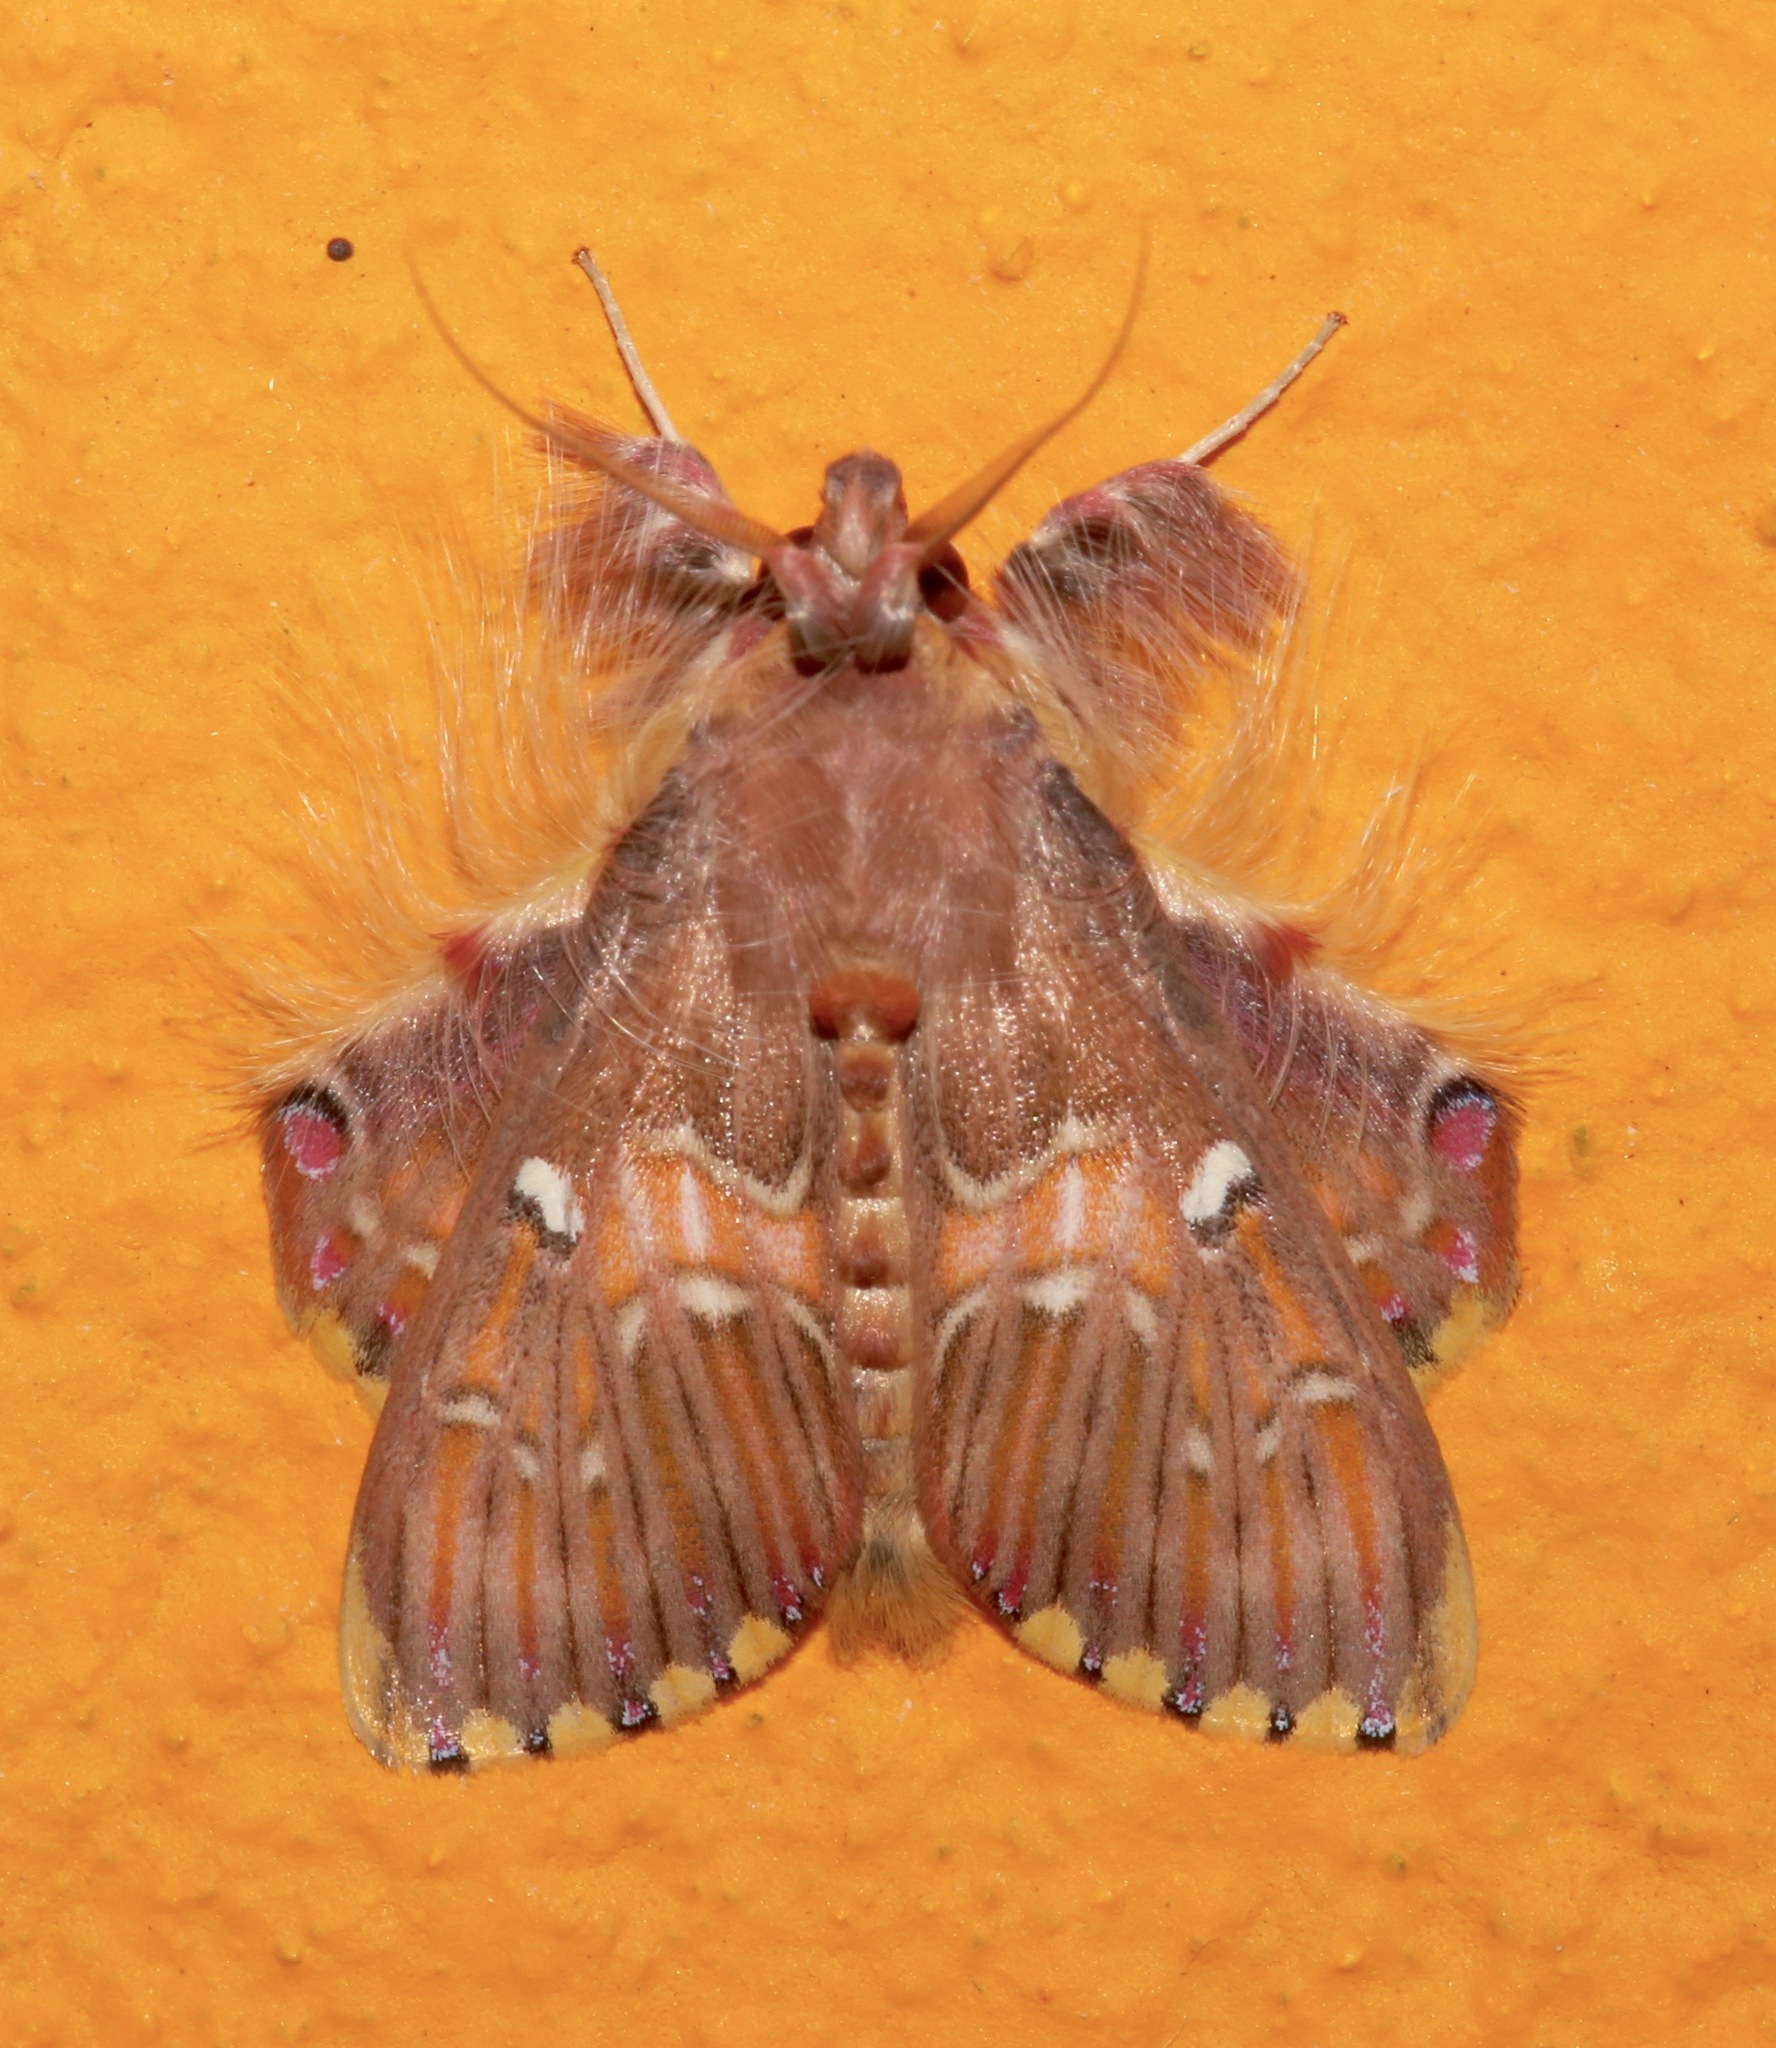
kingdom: Animalia
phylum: Arthropoda
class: Insecta
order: Lepidoptera
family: Erebidae
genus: Sosxetra
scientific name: Sosxetra grata
